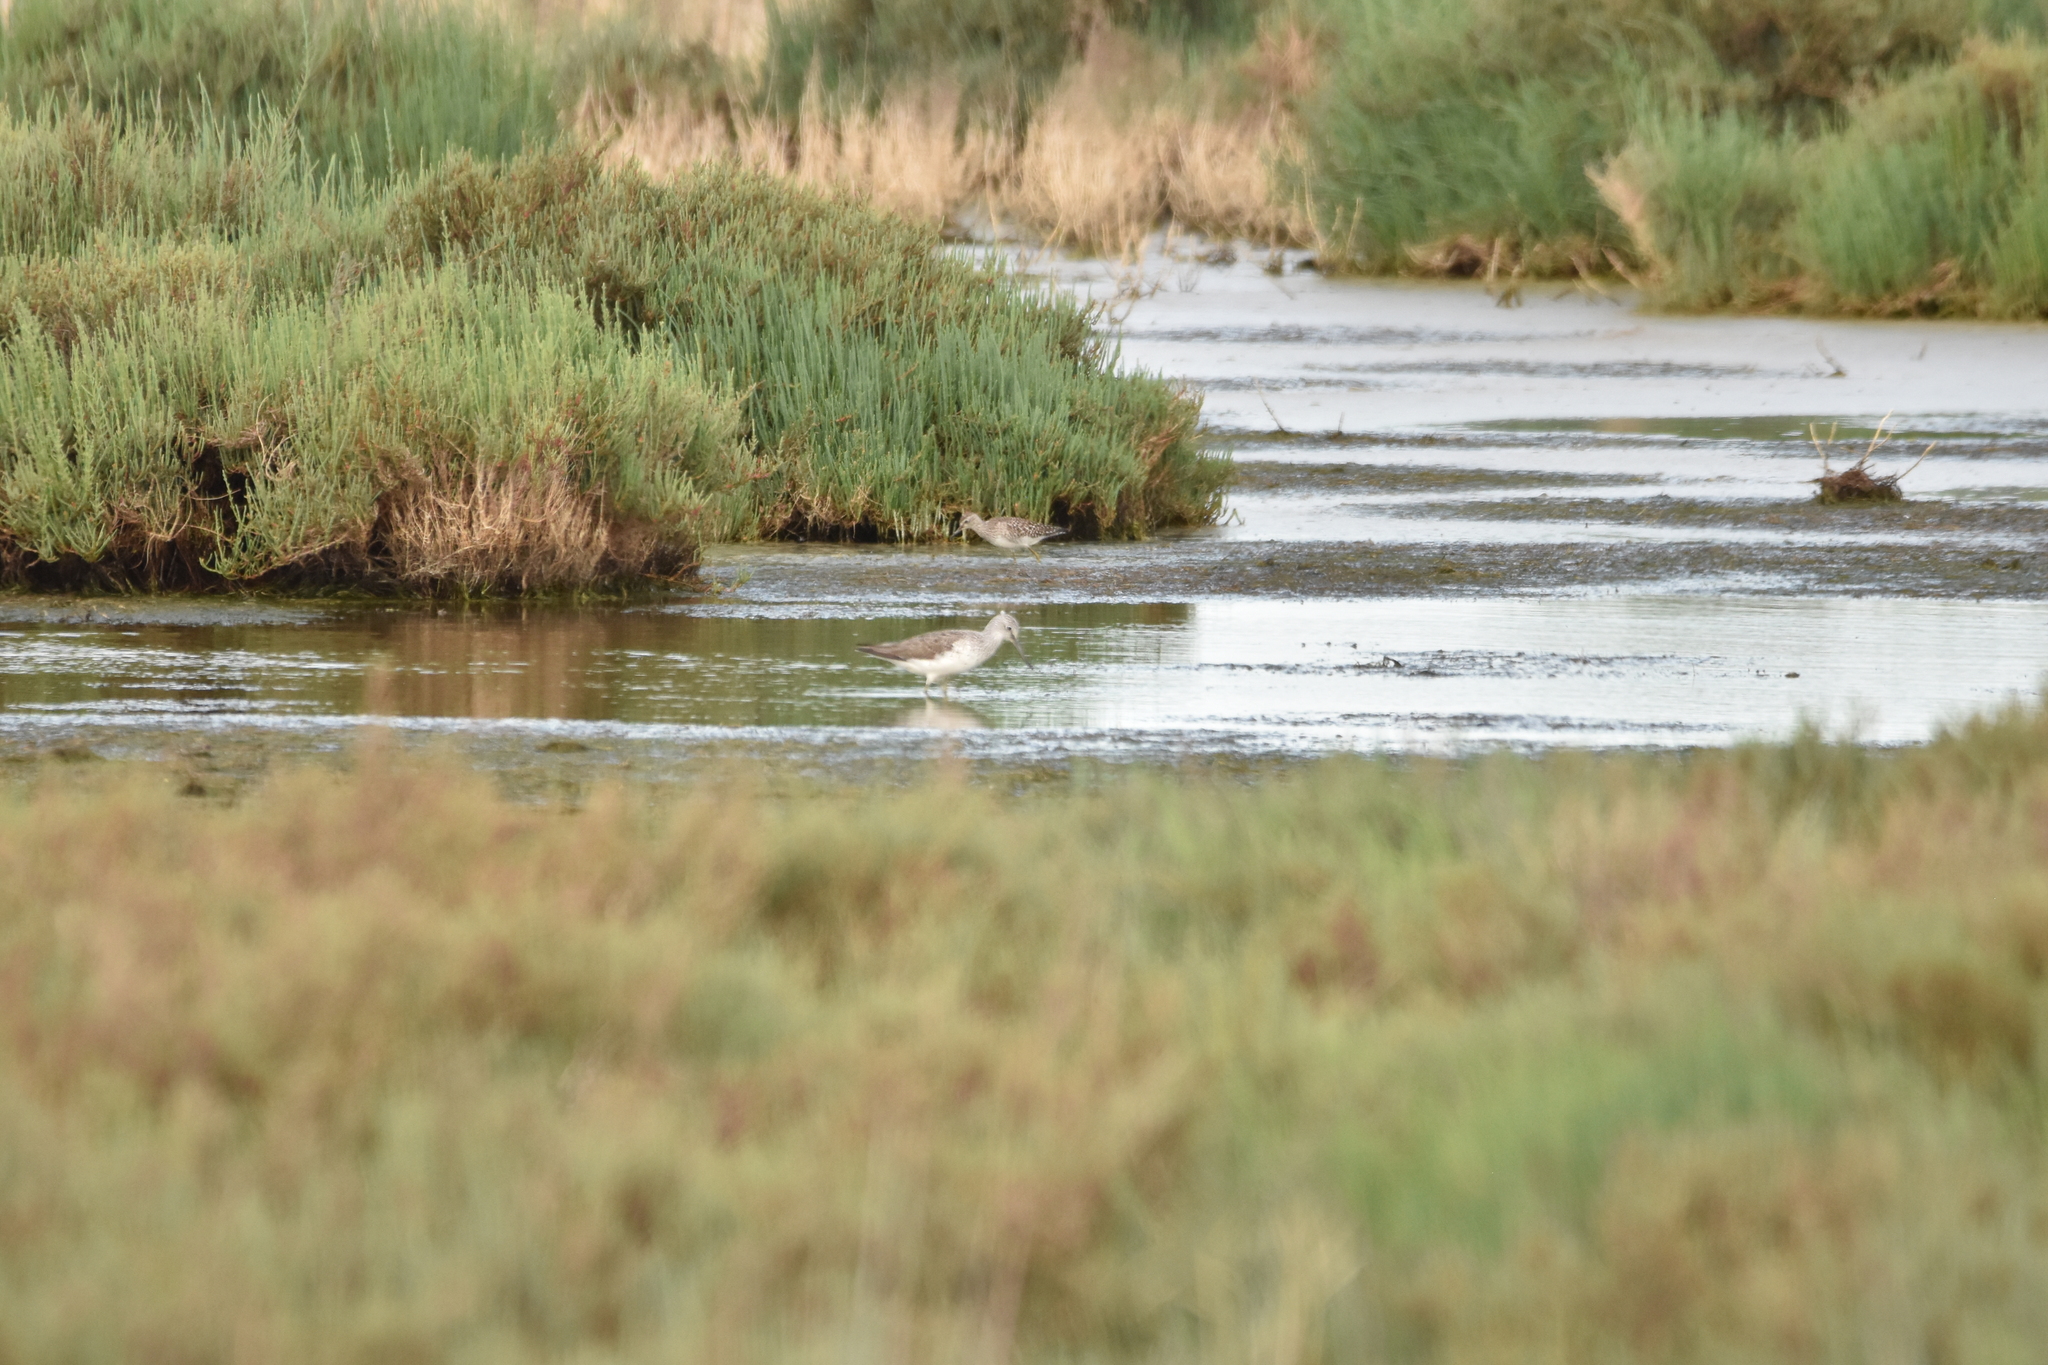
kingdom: Animalia
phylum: Chordata
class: Aves
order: Charadriiformes
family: Scolopacidae
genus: Tringa
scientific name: Tringa glareola
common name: Wood sandpiper
